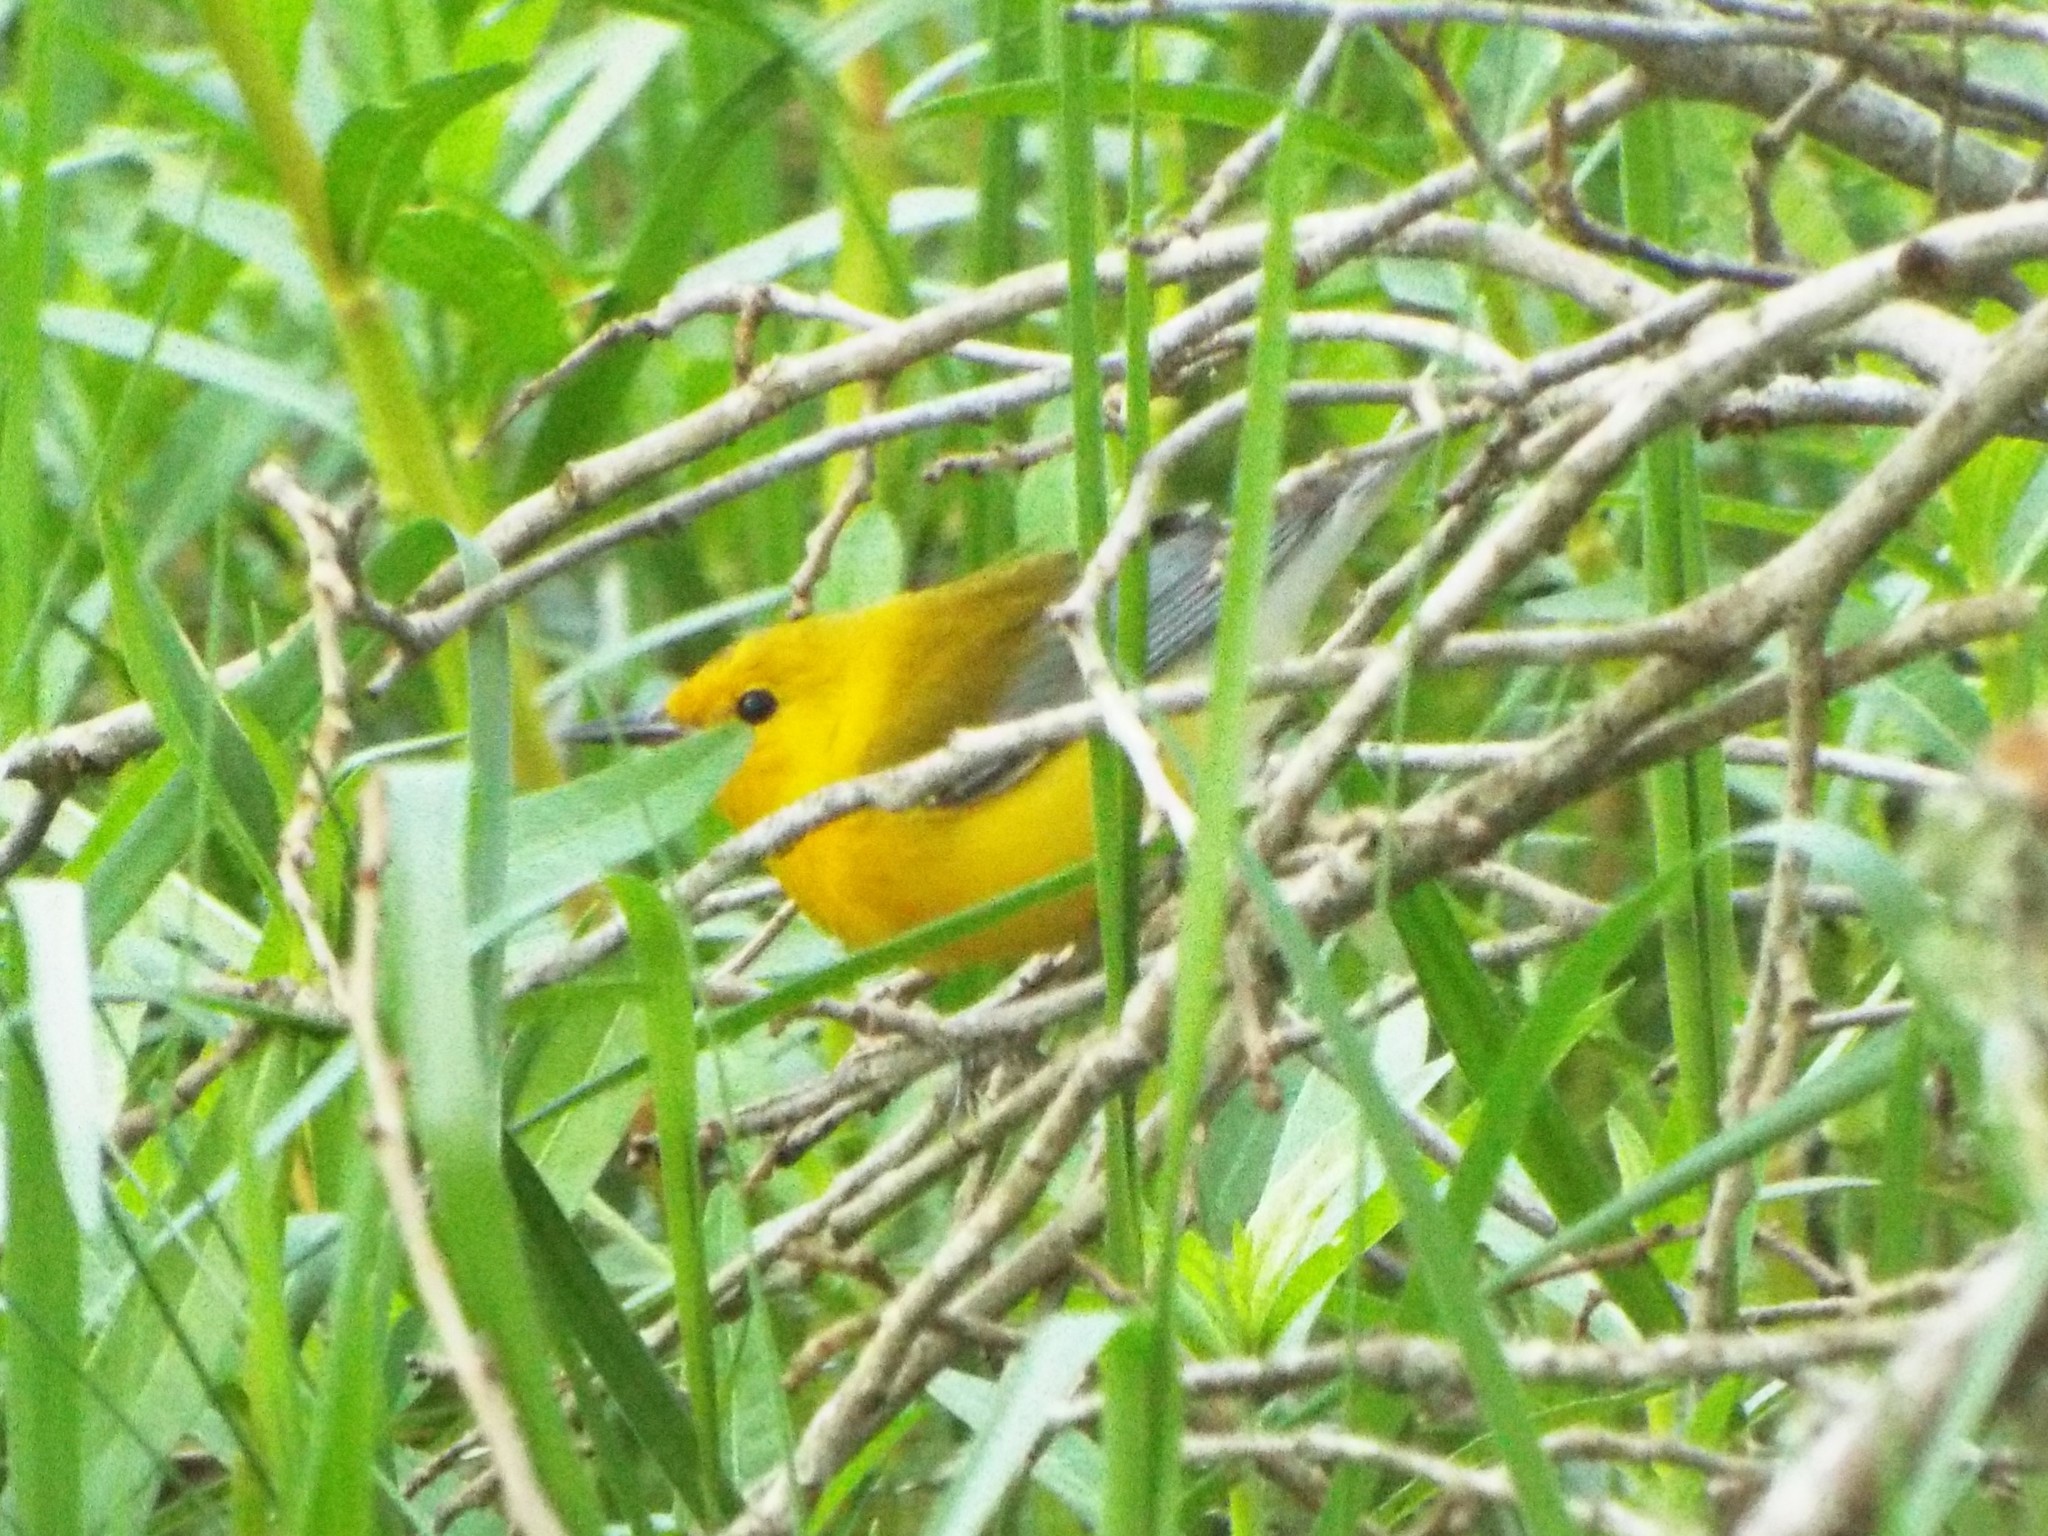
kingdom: Animalia
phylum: Chordata
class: Aves
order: Passeriformes
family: Parulidae
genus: Protonotaria
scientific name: Protonotaria citrea
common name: Prothonotary warbler
